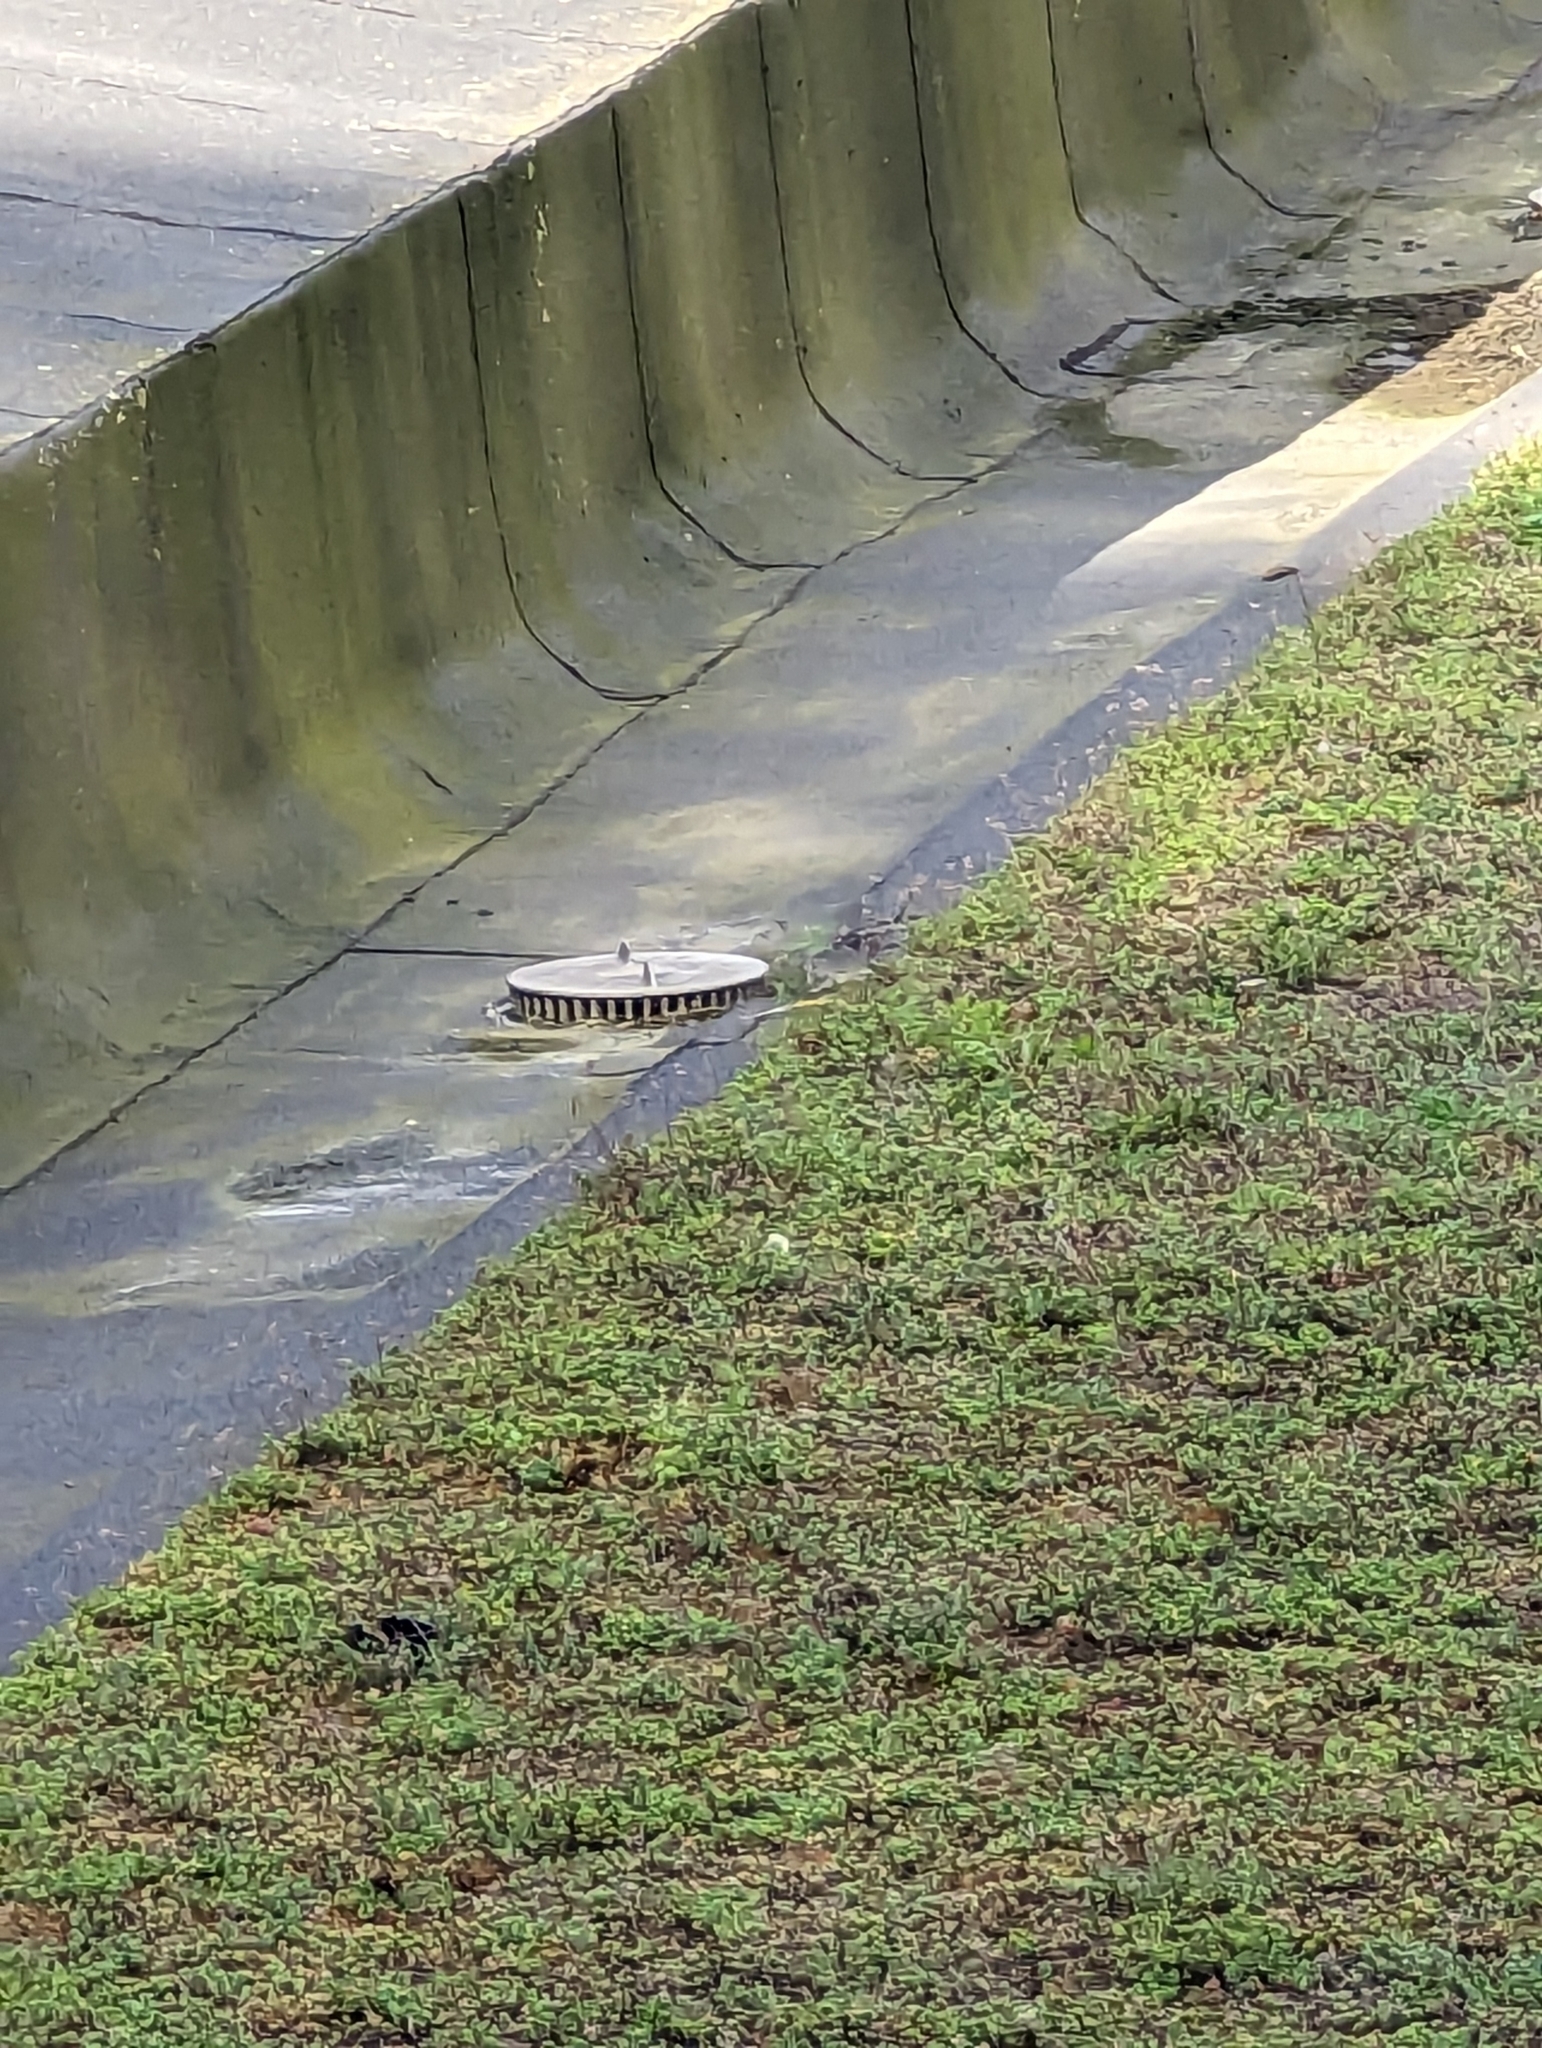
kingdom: Animalia
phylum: Chordata
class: Aves
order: Passeriformes
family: Motacillidae
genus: Motacilla
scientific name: Motacilla cinerea
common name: Grey wagtail
